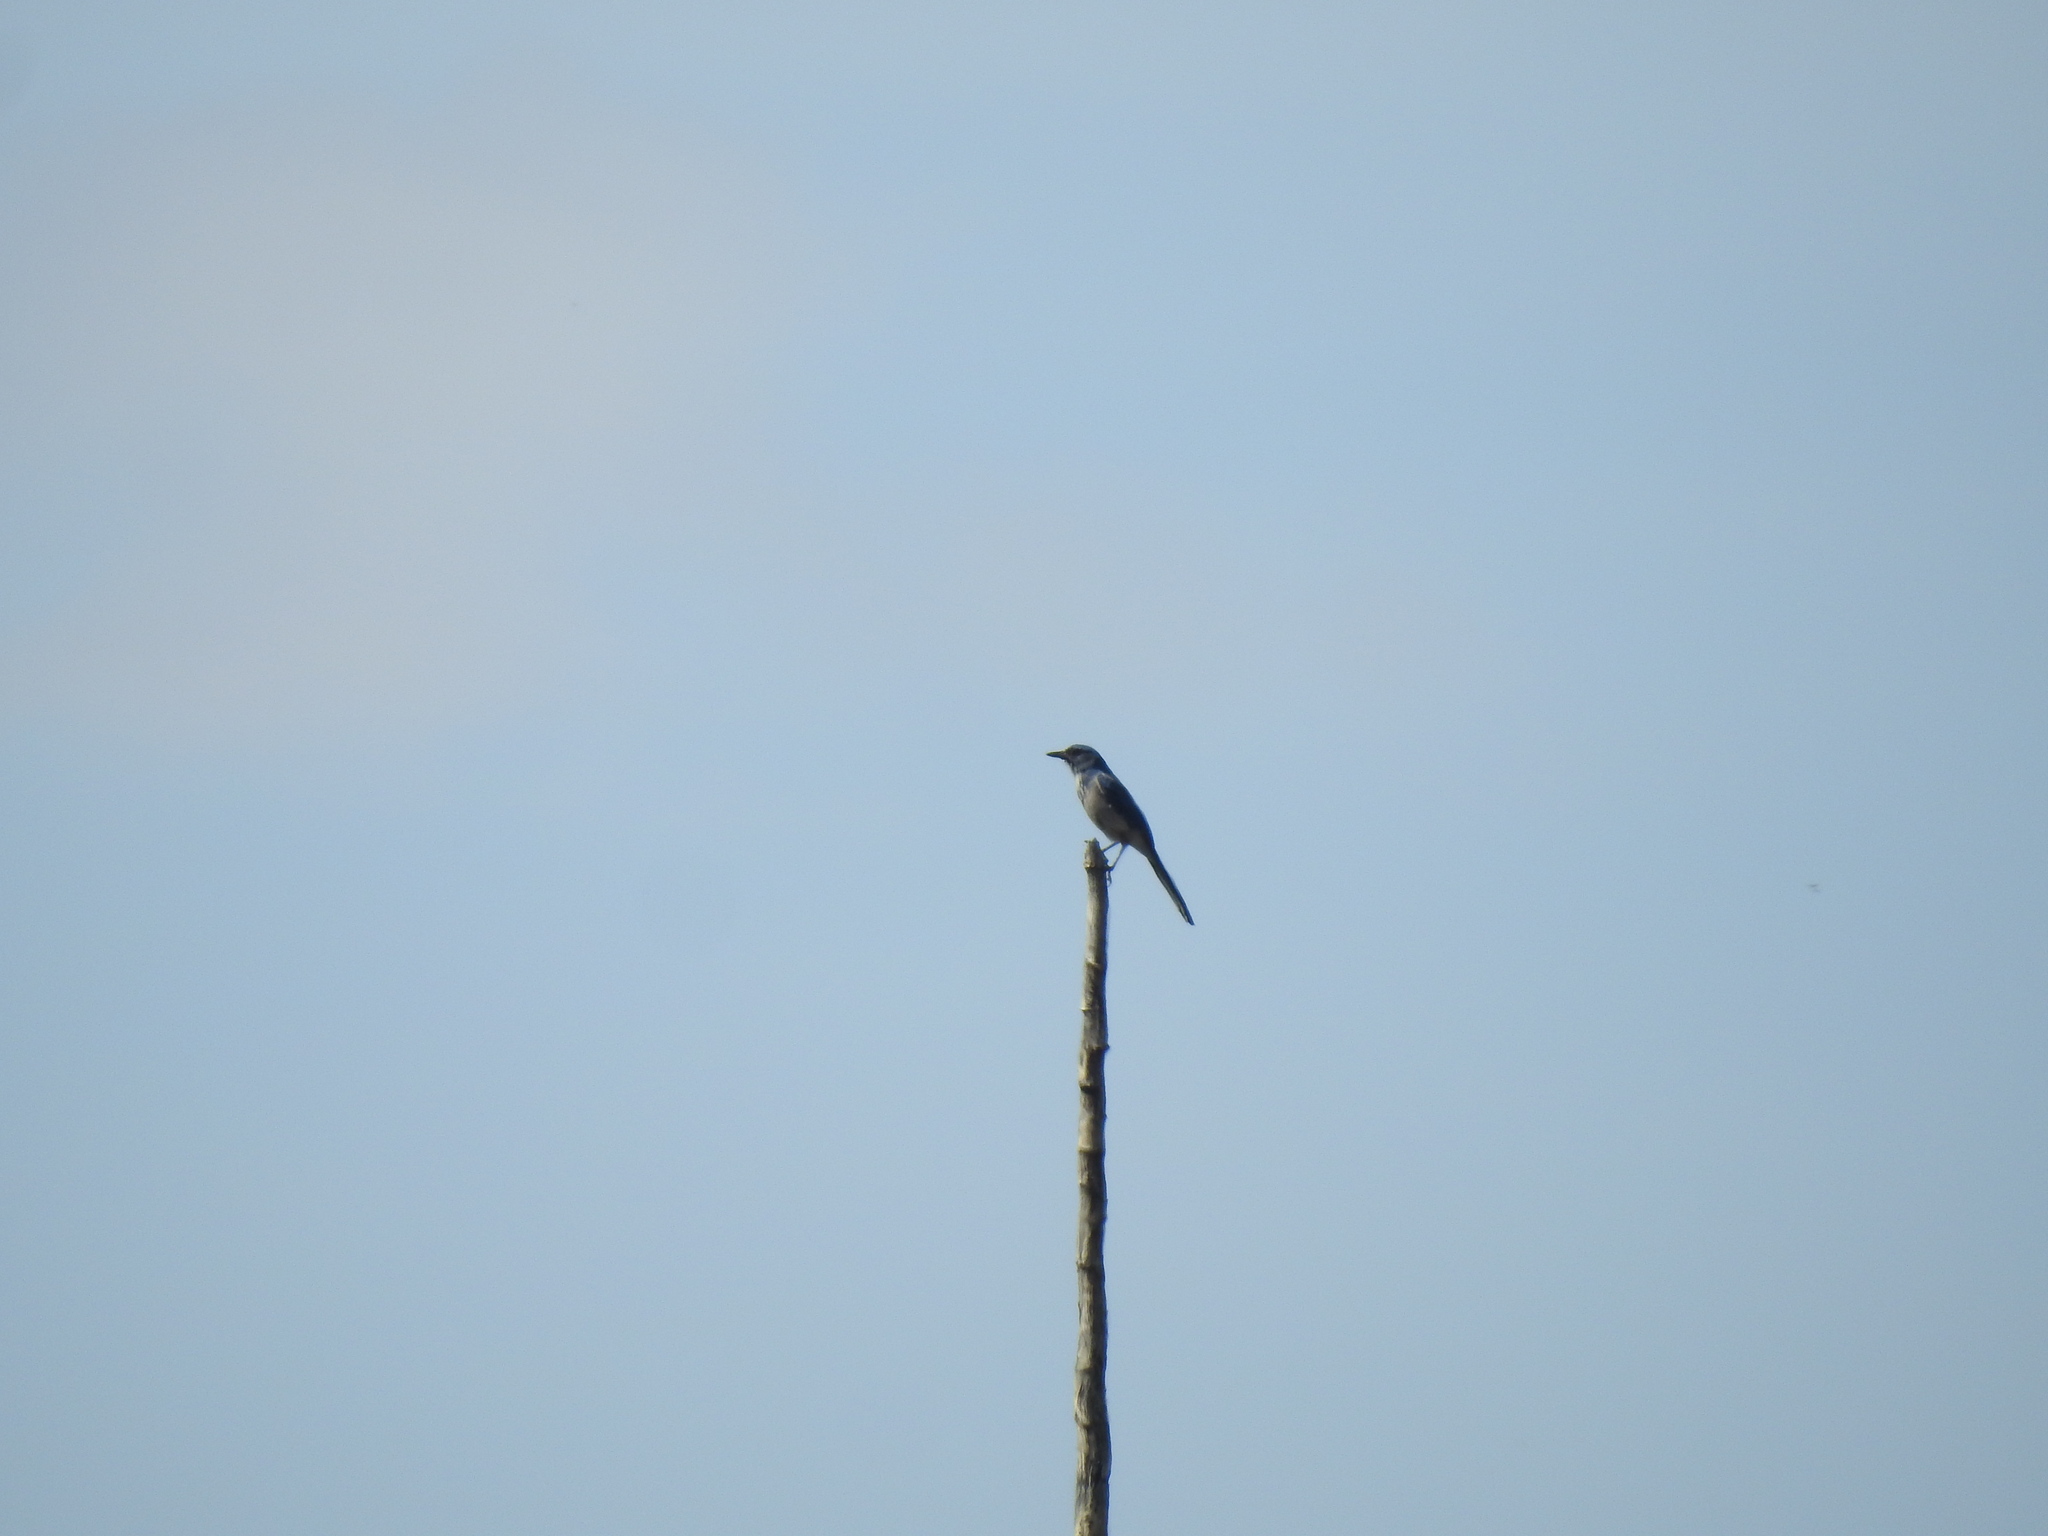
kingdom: Animalia
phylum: Chordata
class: Aves
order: Passeriformes
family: Corvidae
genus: Aphelocoma
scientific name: Aphelocoma woodhouseii
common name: Woodhouse's scrub-jay
